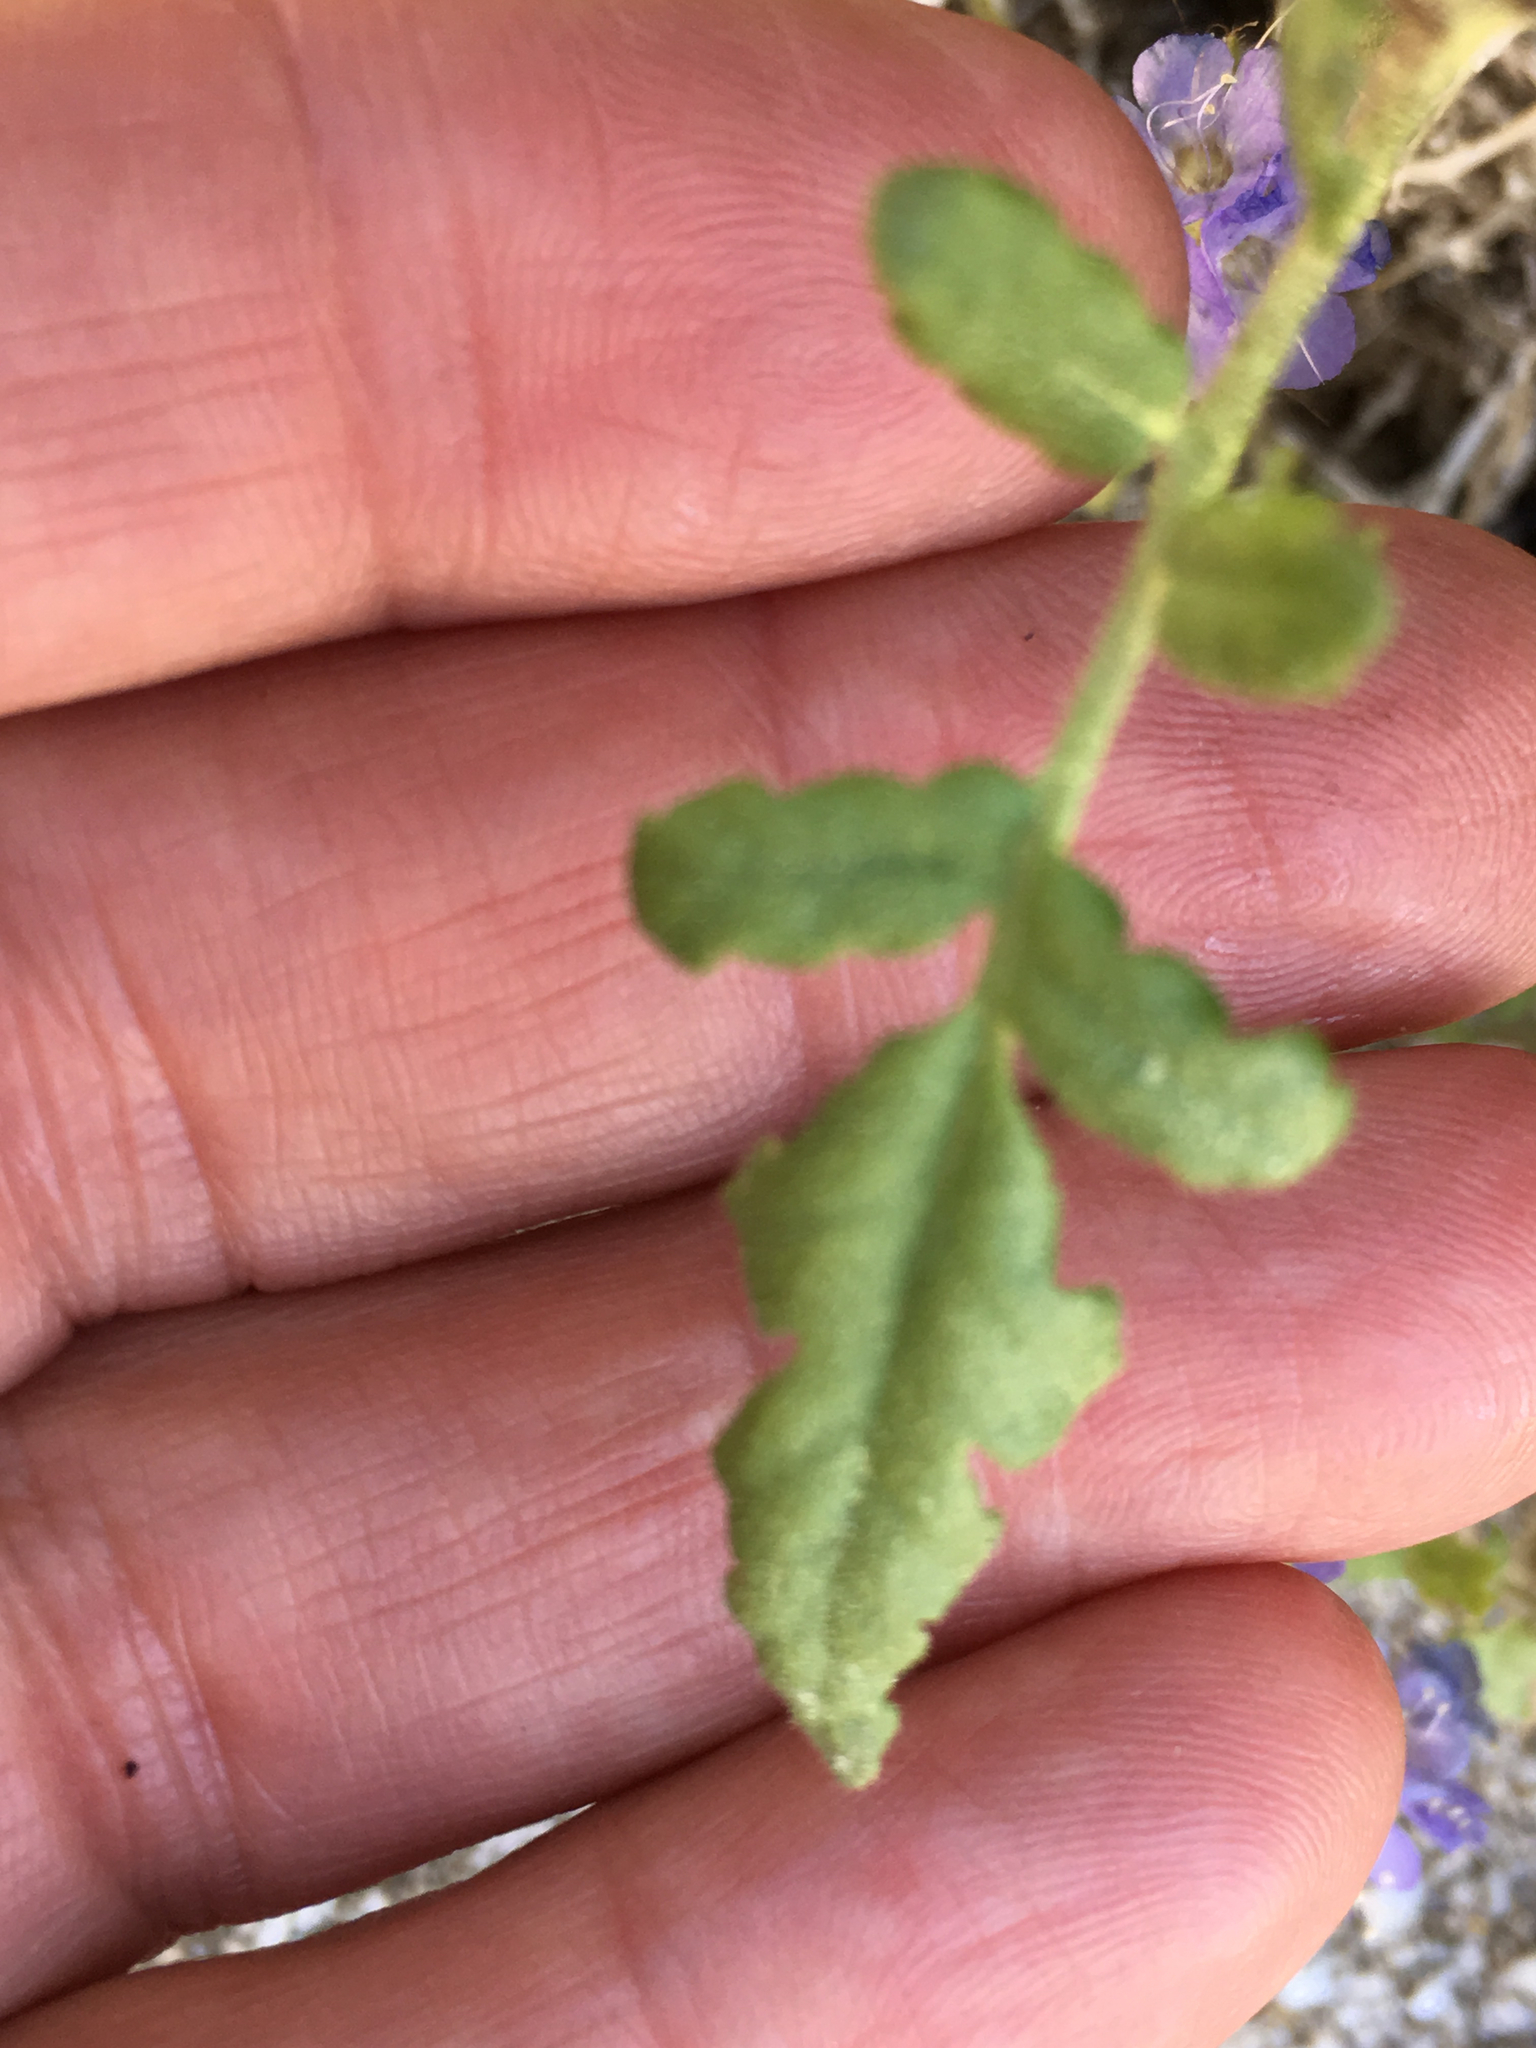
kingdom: Plantae
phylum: Tracheophyta
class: Magnoliopsida
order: Boraginales
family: Hydrophyllaceae
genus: Phacelia
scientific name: Phacelia distans
